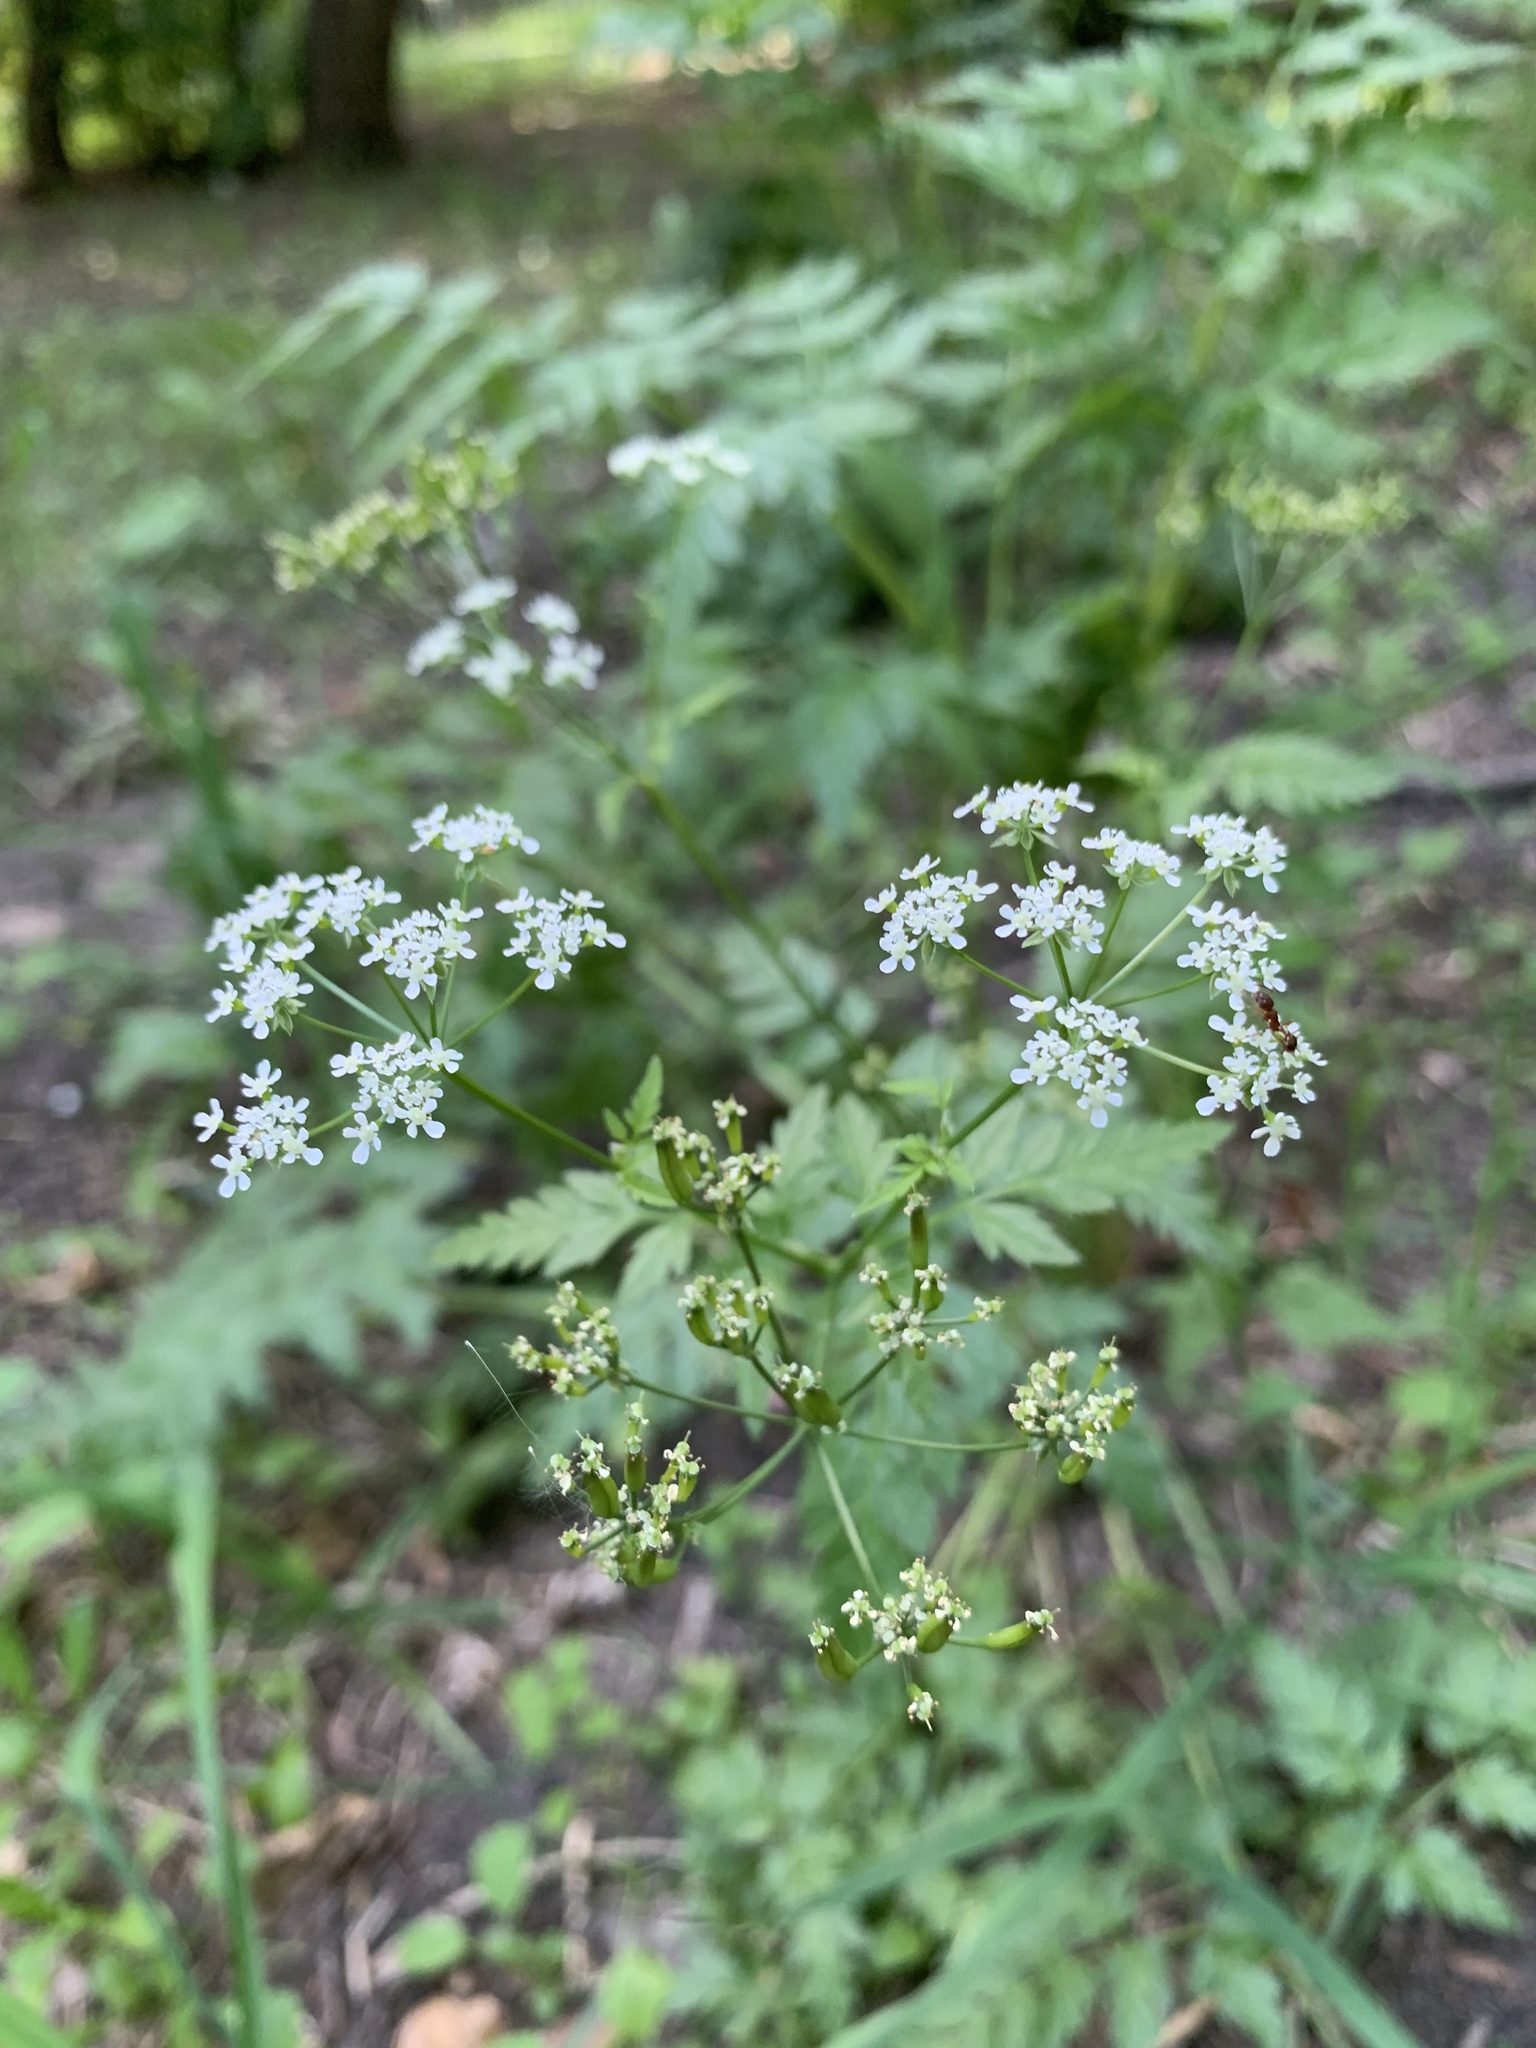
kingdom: Plantae
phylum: Tracheophyta
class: Magnoliopsida
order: Apiales
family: Apiaceae
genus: Anthriscus
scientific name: Anthriscus sylvestris
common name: Cow parsley
